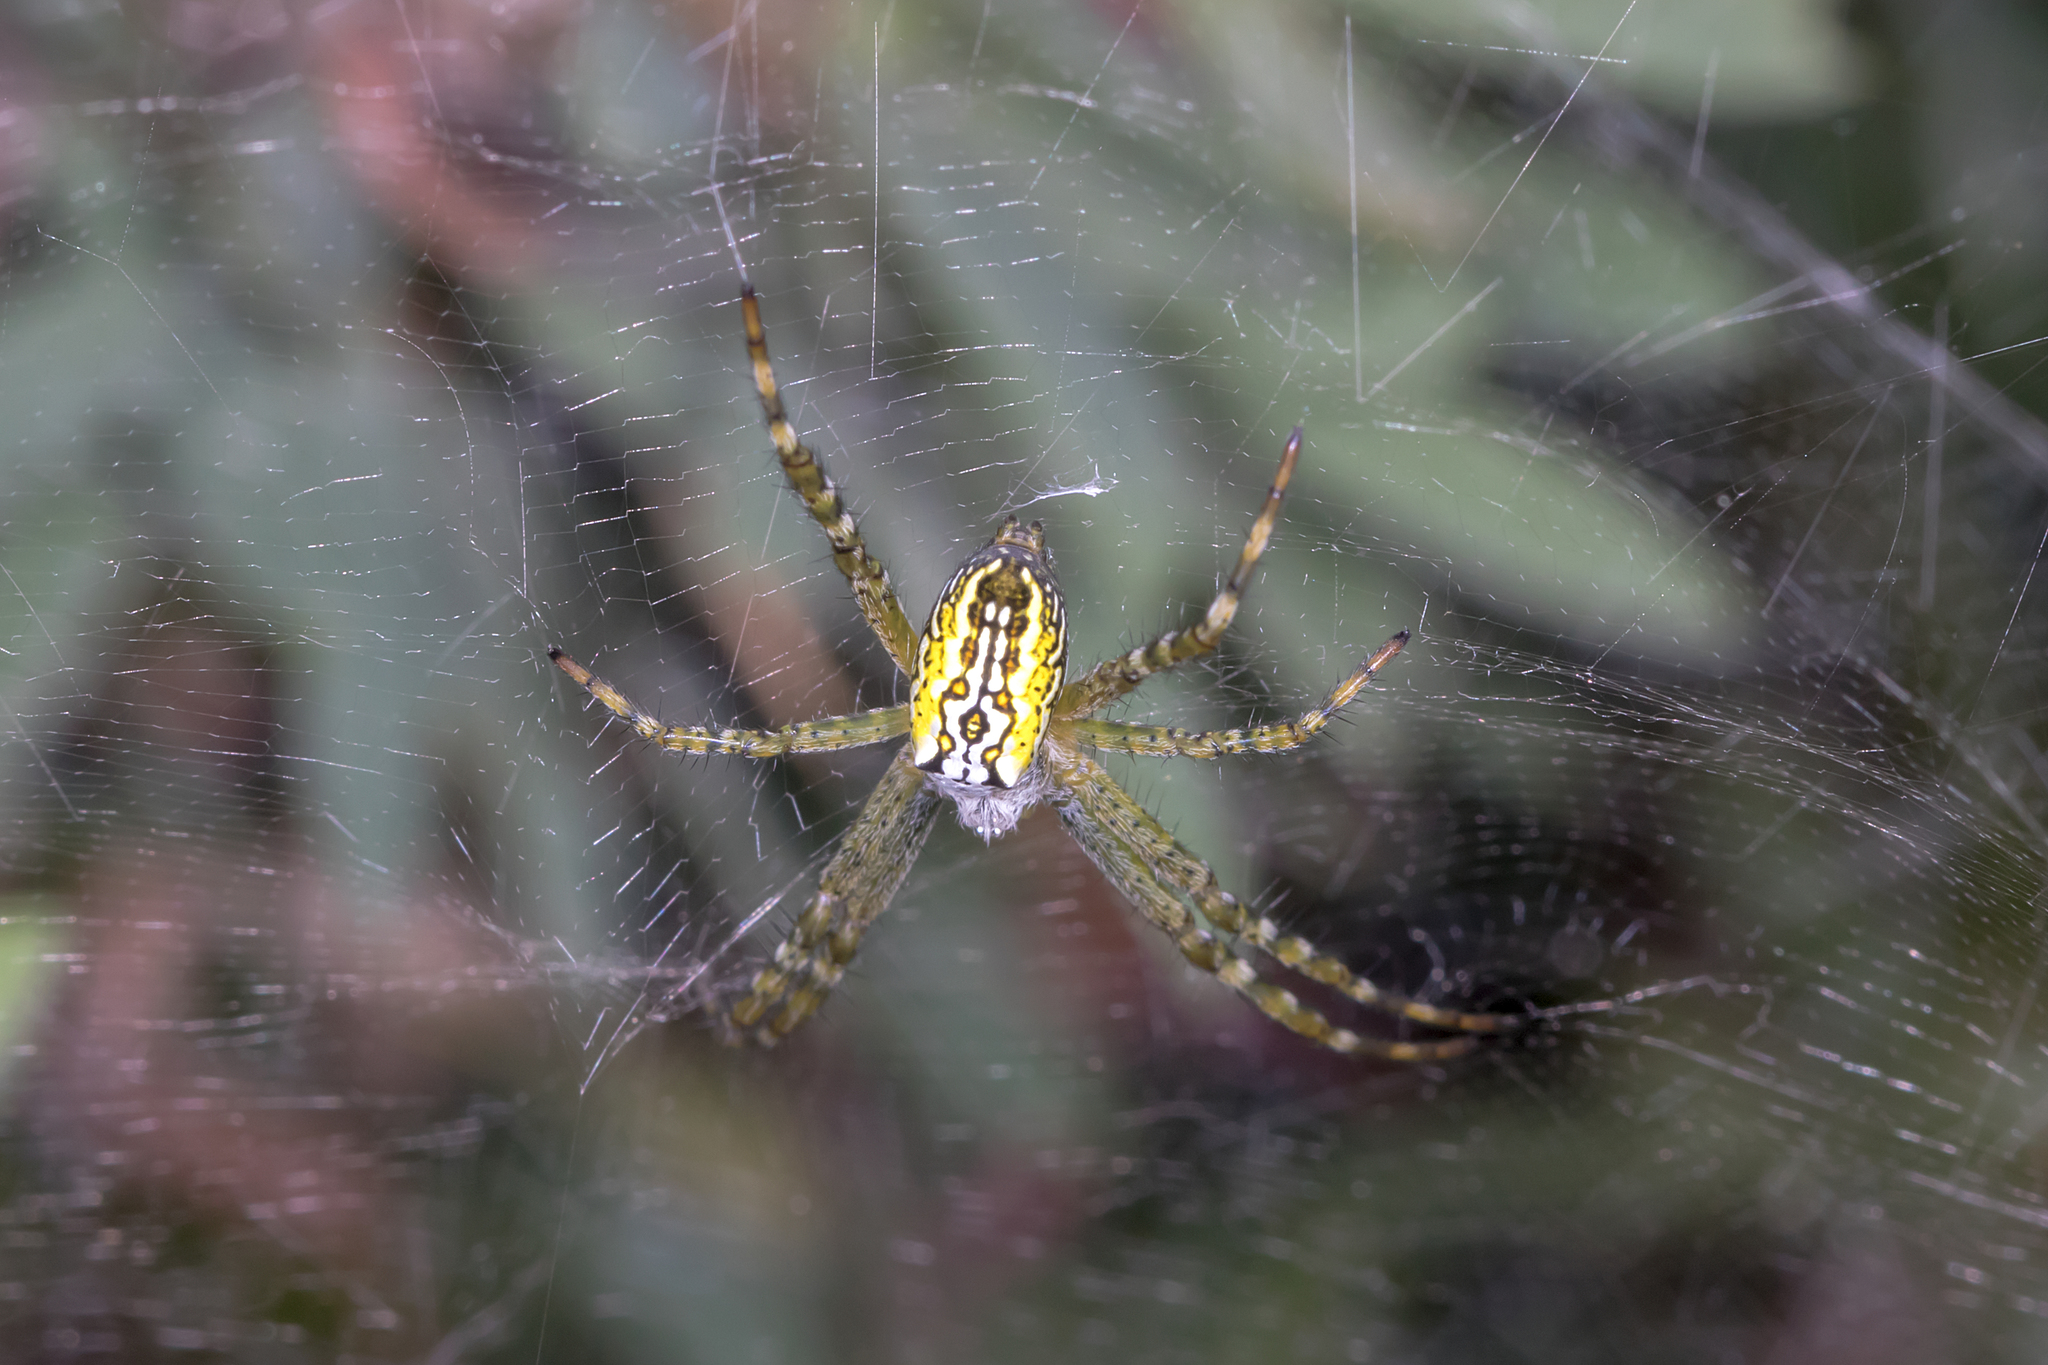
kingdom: Chromista
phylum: Ochrophyta
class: Dictyochophyceae
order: Pedinellales
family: Cyrtophoraceae
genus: Cyrtophora
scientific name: Cyrtophora moluccensis
